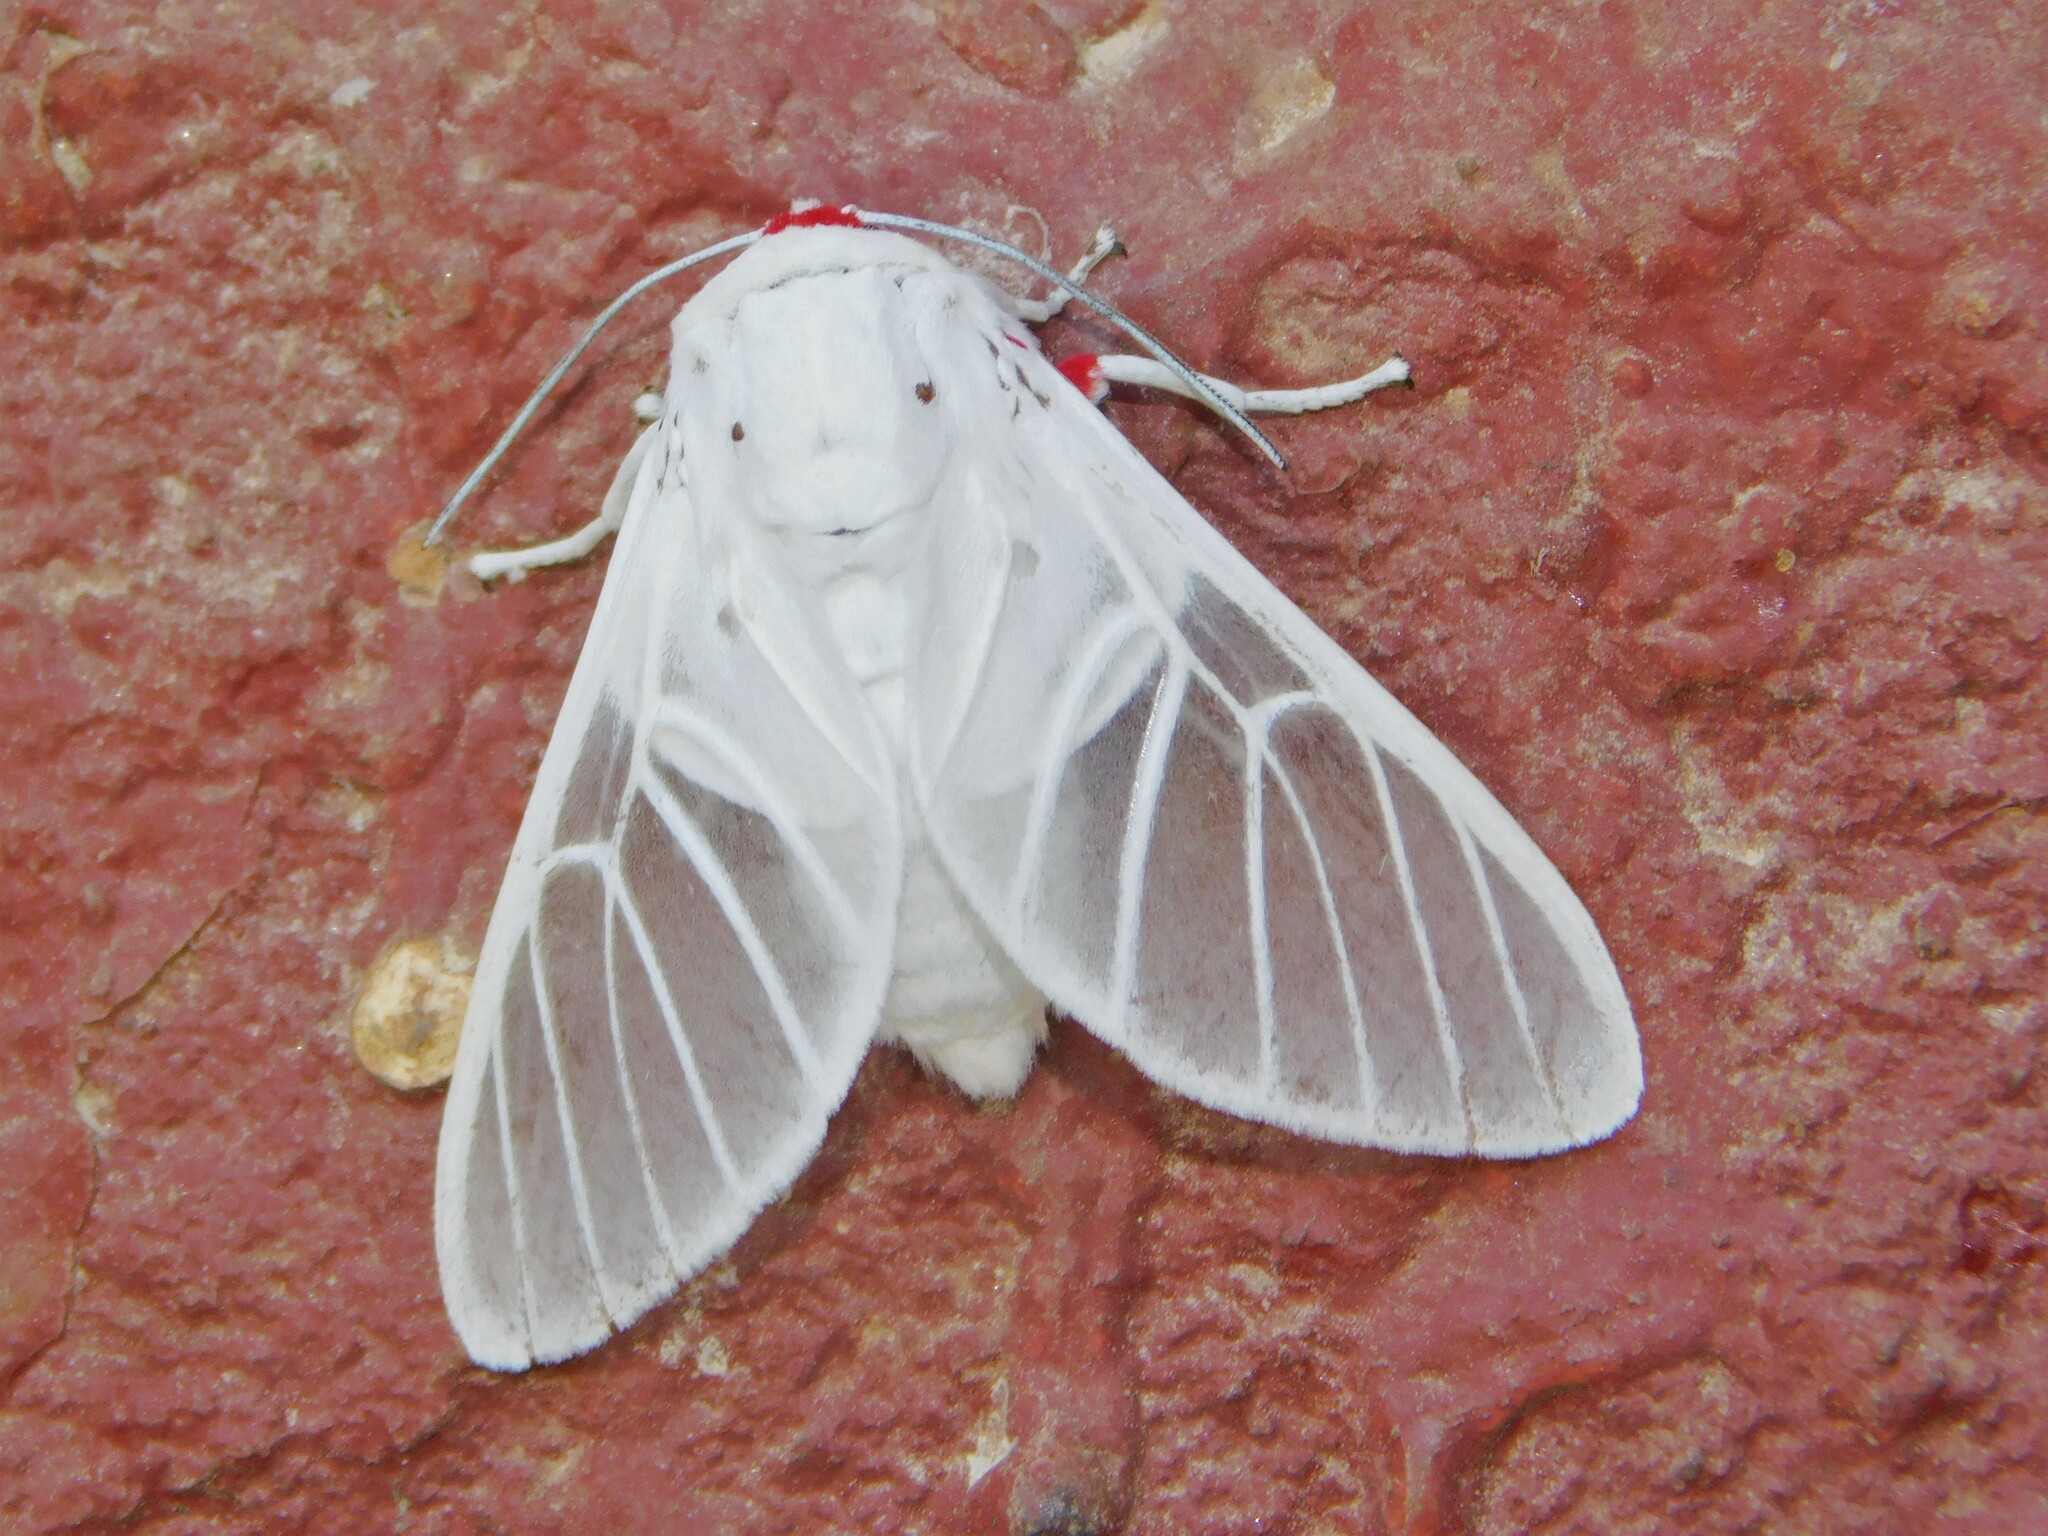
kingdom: Animalia
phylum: Arthropoda
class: Insecta
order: Lepidoptera
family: Erebidae
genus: Balacra
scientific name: Balacra pulchra
